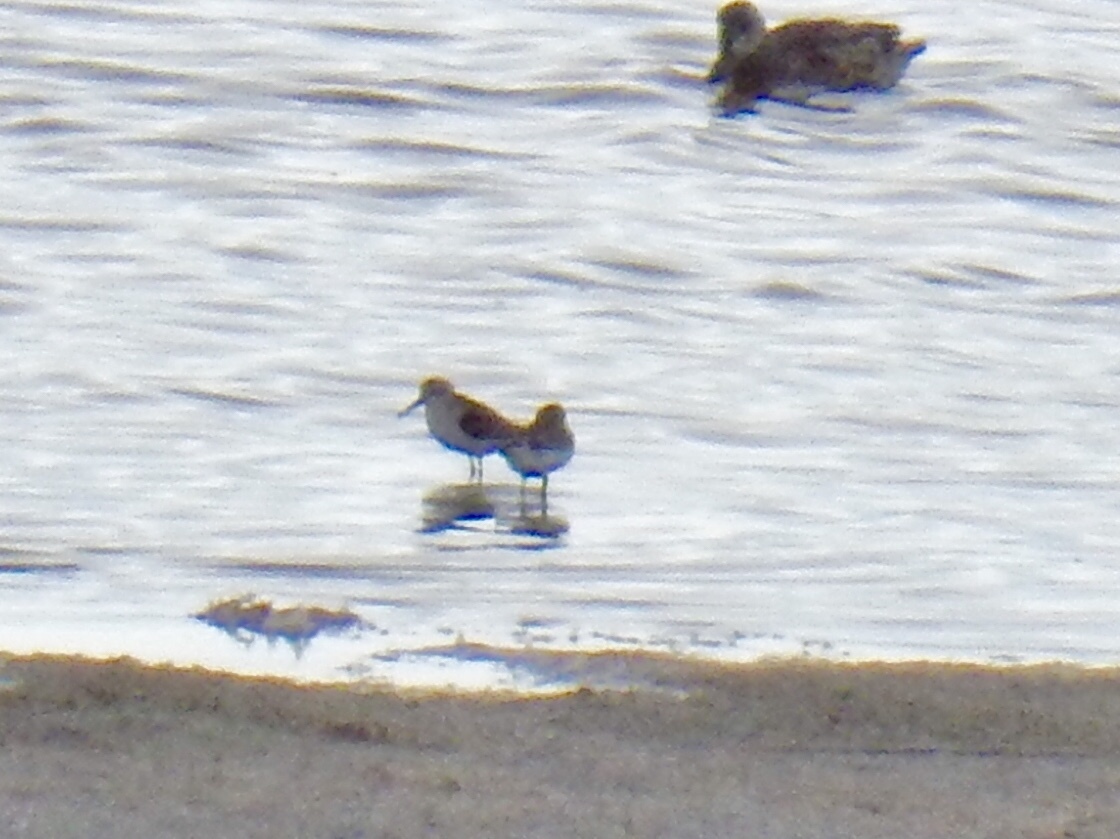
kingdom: Animalia
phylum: Chordata
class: Aves
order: Charadriiformes
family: Scolopacidae
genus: Calidris
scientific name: Calidris mauri
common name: Western sandpiper
